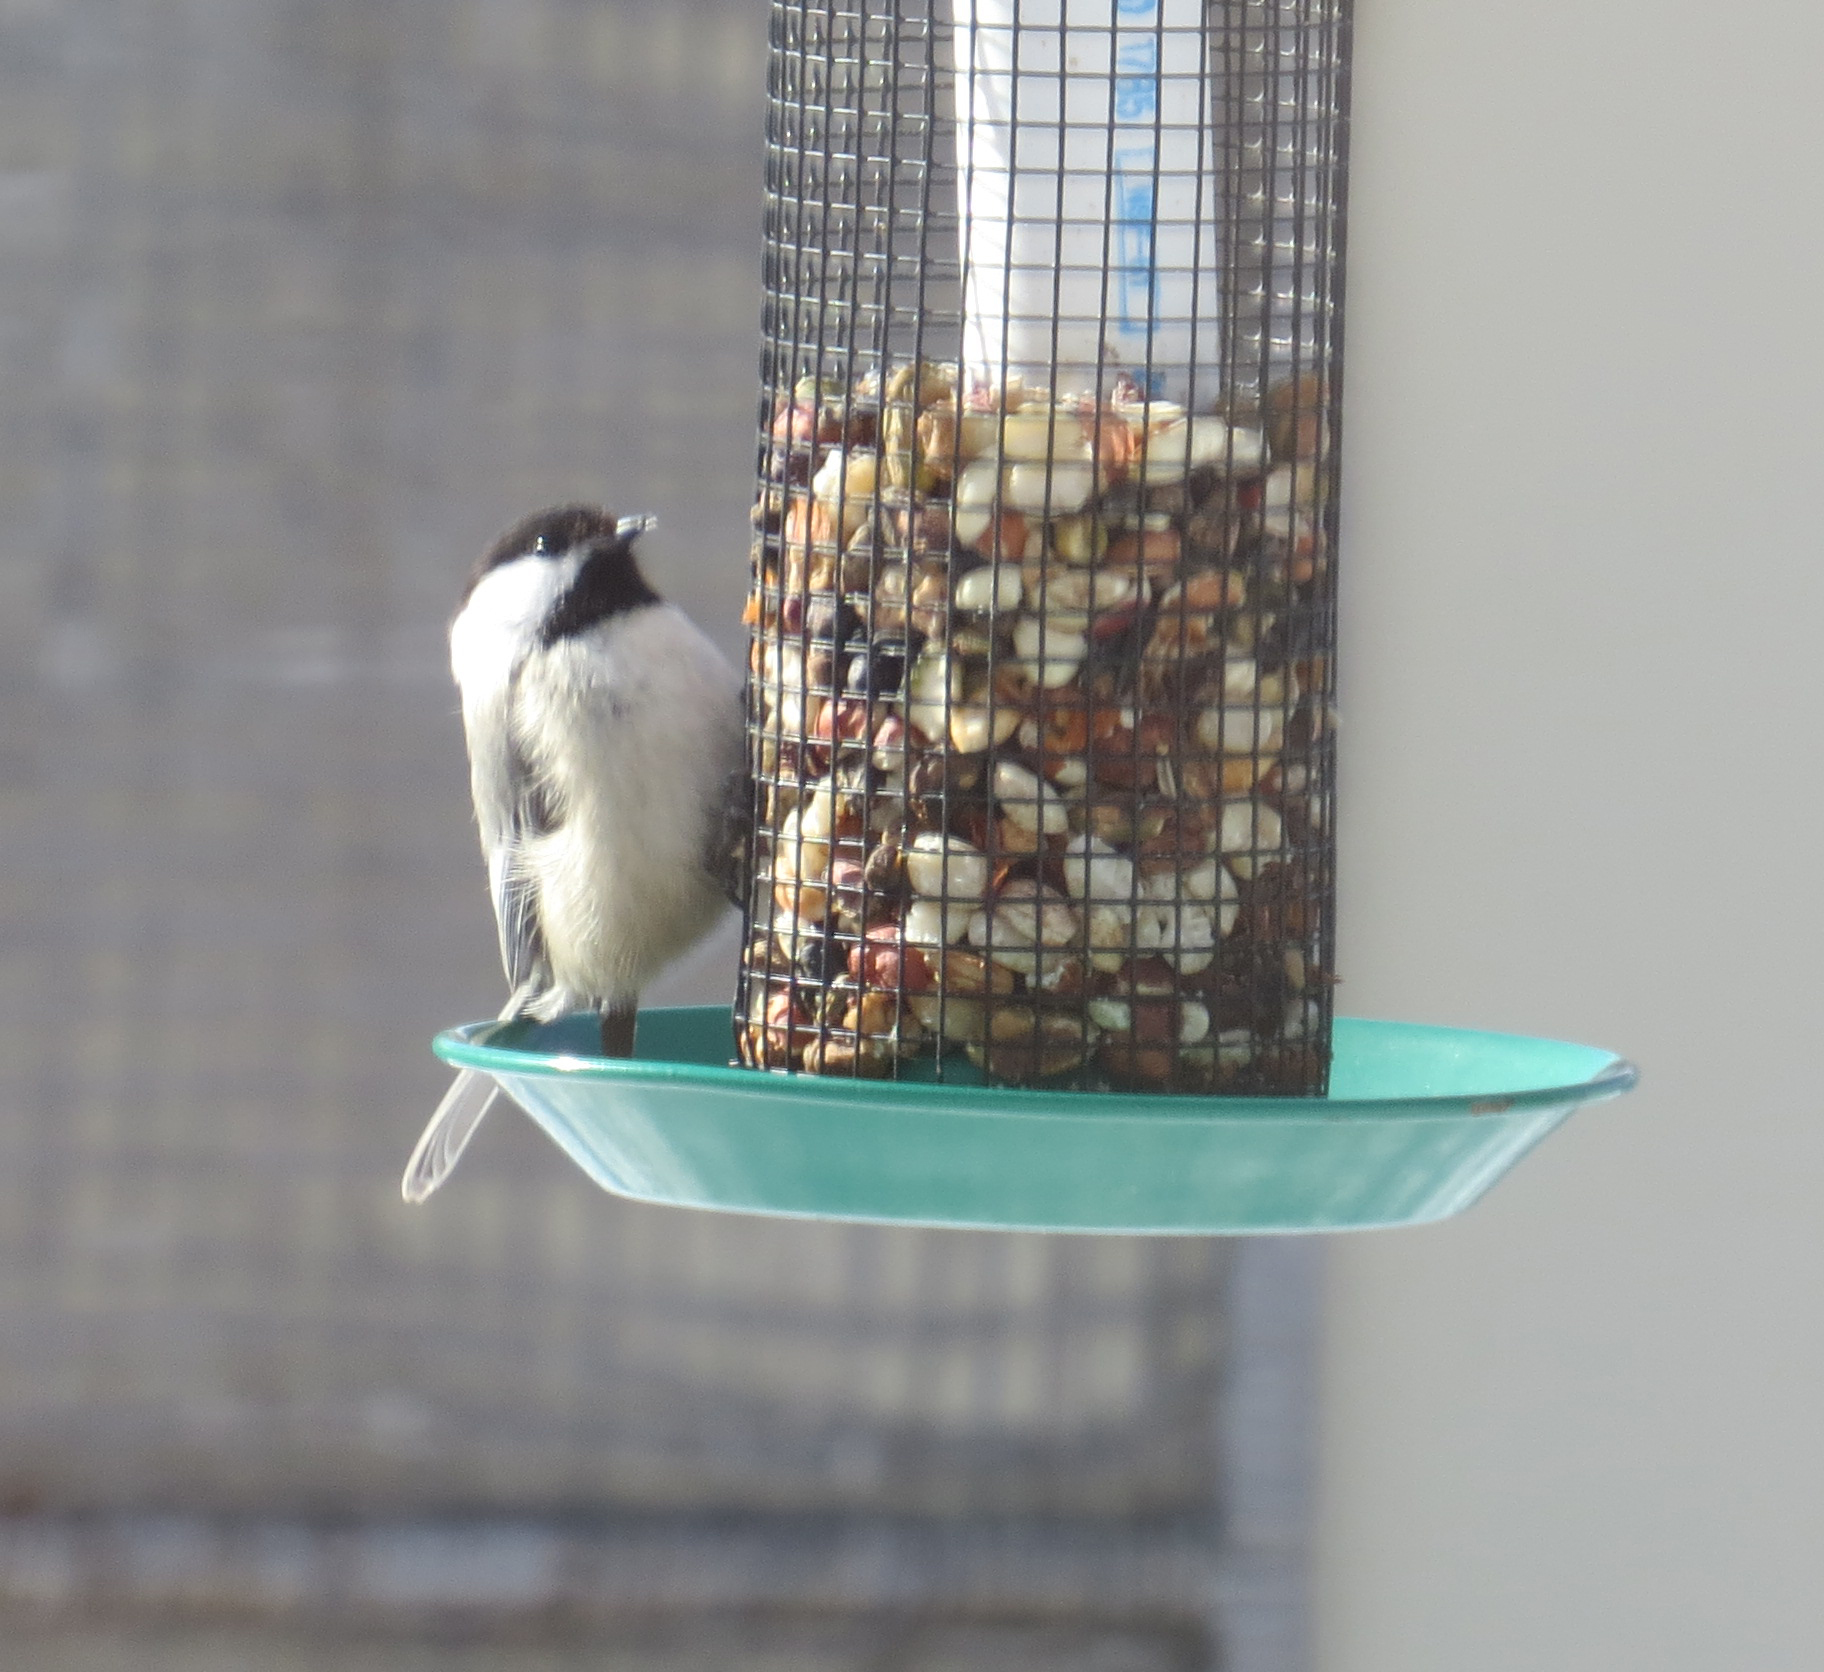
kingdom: Animalia
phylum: Chordata
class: Aves
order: Passeriformes
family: Paridae
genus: Poecile
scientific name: Poecile atricapillus
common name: Black-capped chickadee
